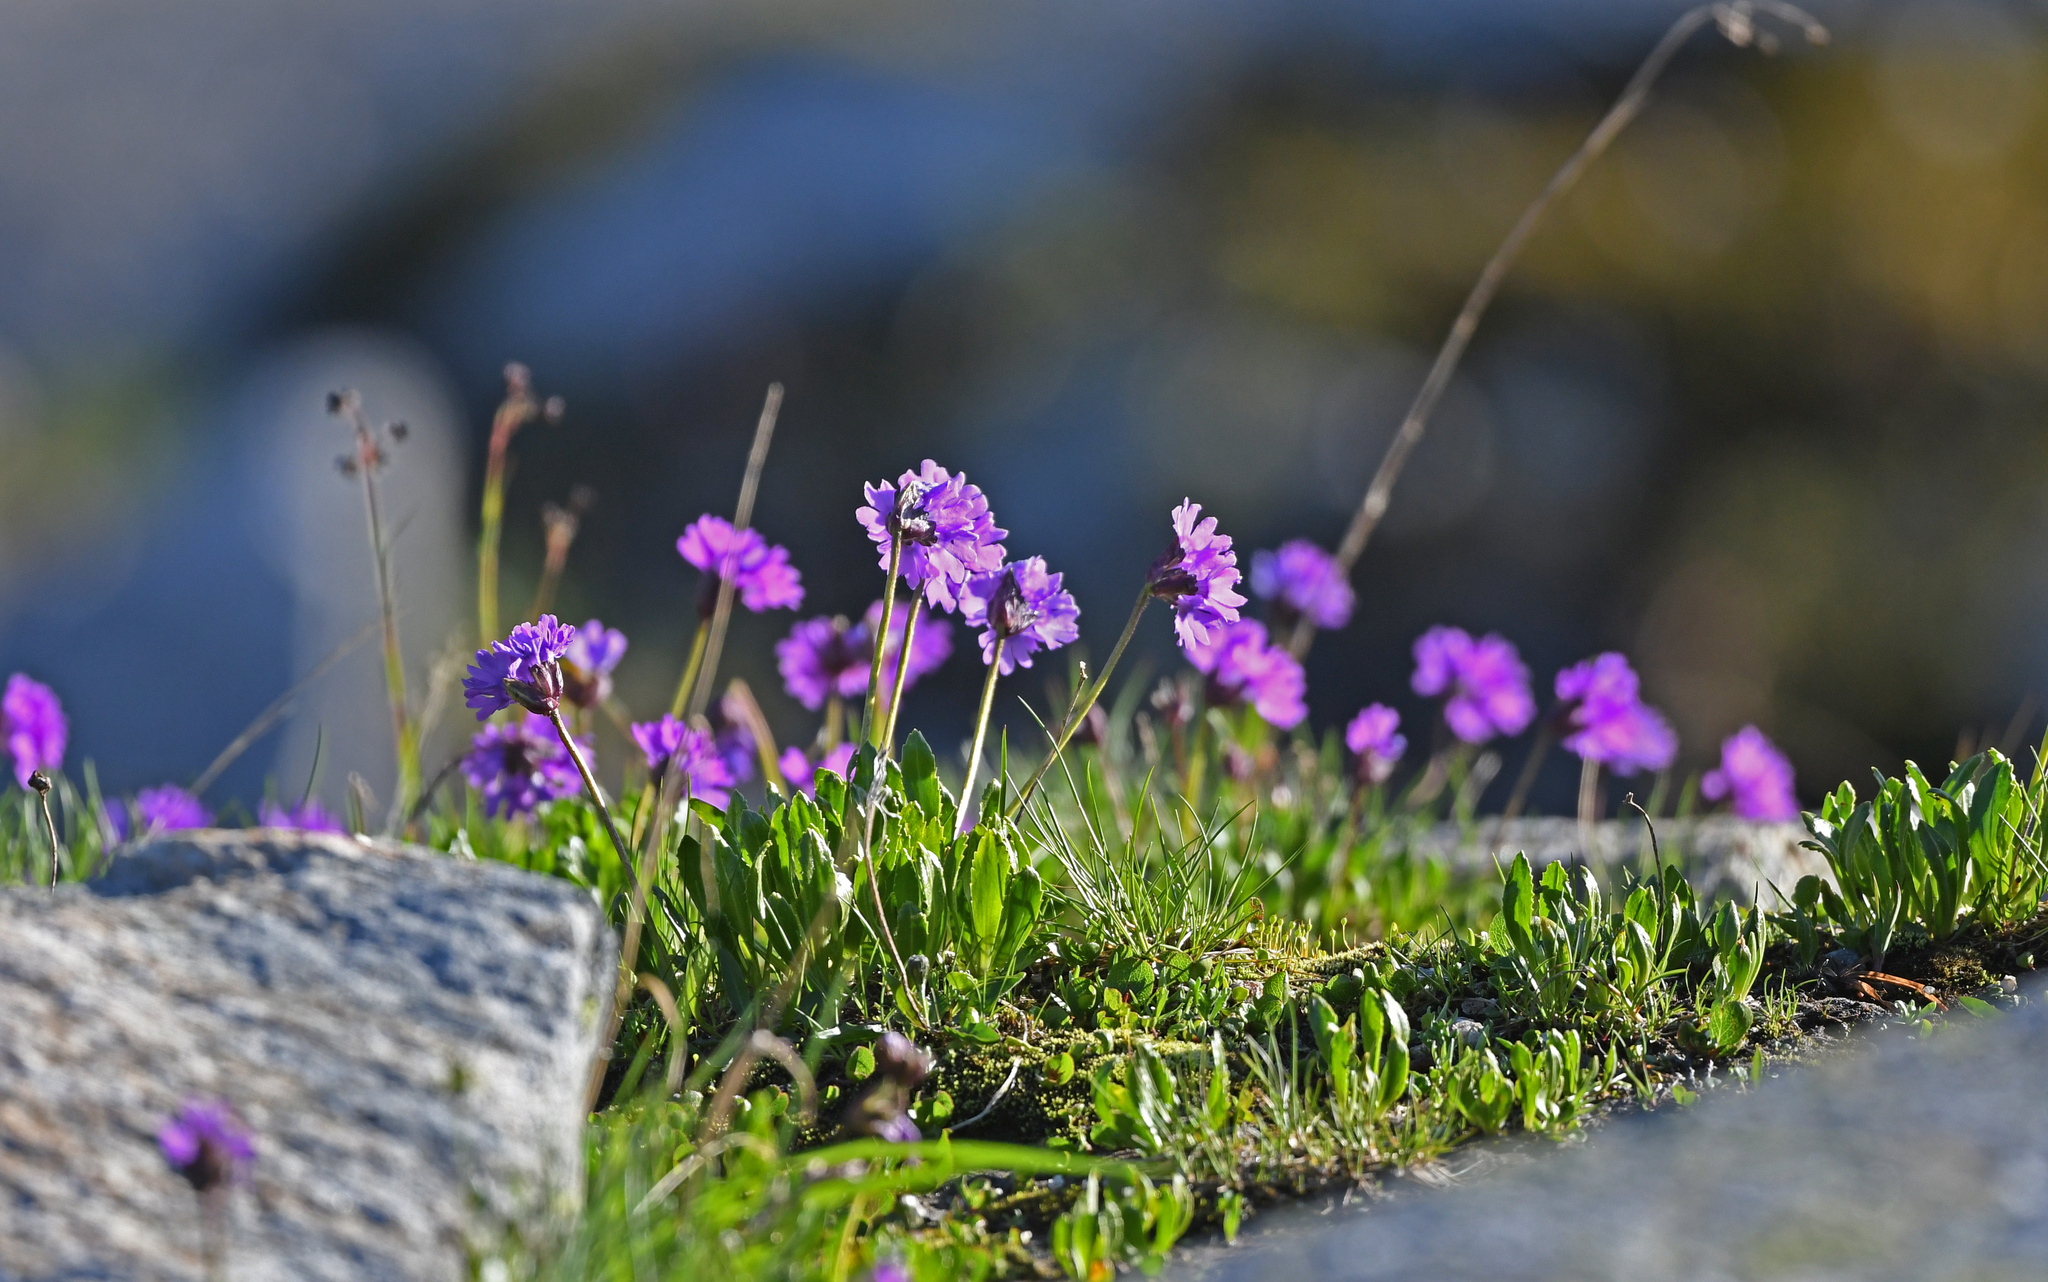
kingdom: Plantae
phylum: Tracheophyta
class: Magnoliopsida
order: Ericales
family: Primulaceae
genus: Primula
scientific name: Primula glutinosa
